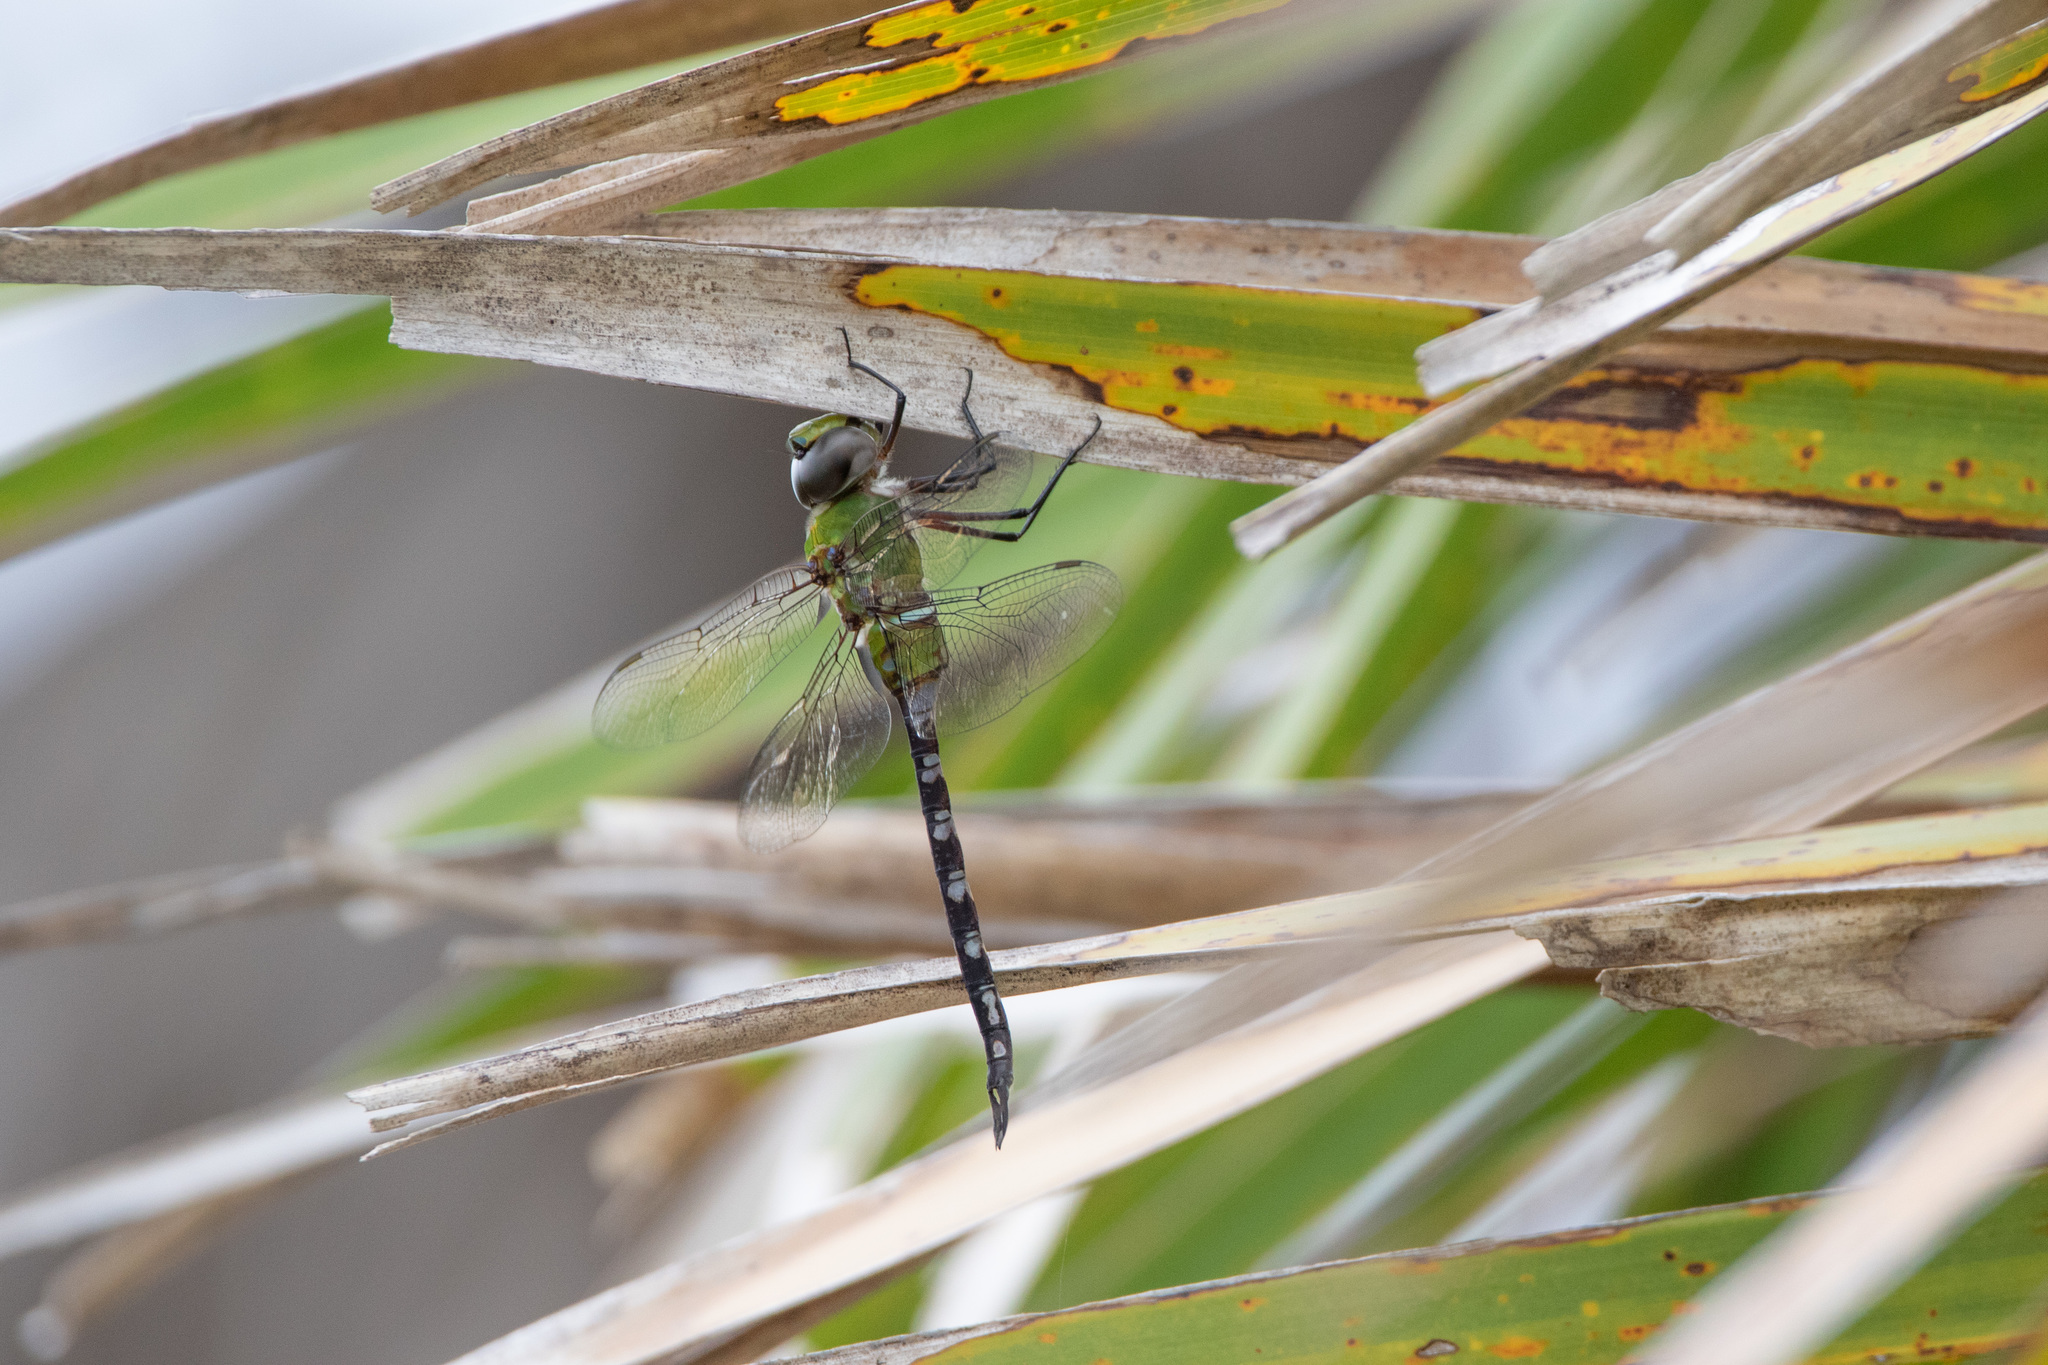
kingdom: Animalia
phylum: Arthropoda
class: Insecta
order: Odonata
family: Aeshnidae
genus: Anax
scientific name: Anax amazili
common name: Amazon darner
